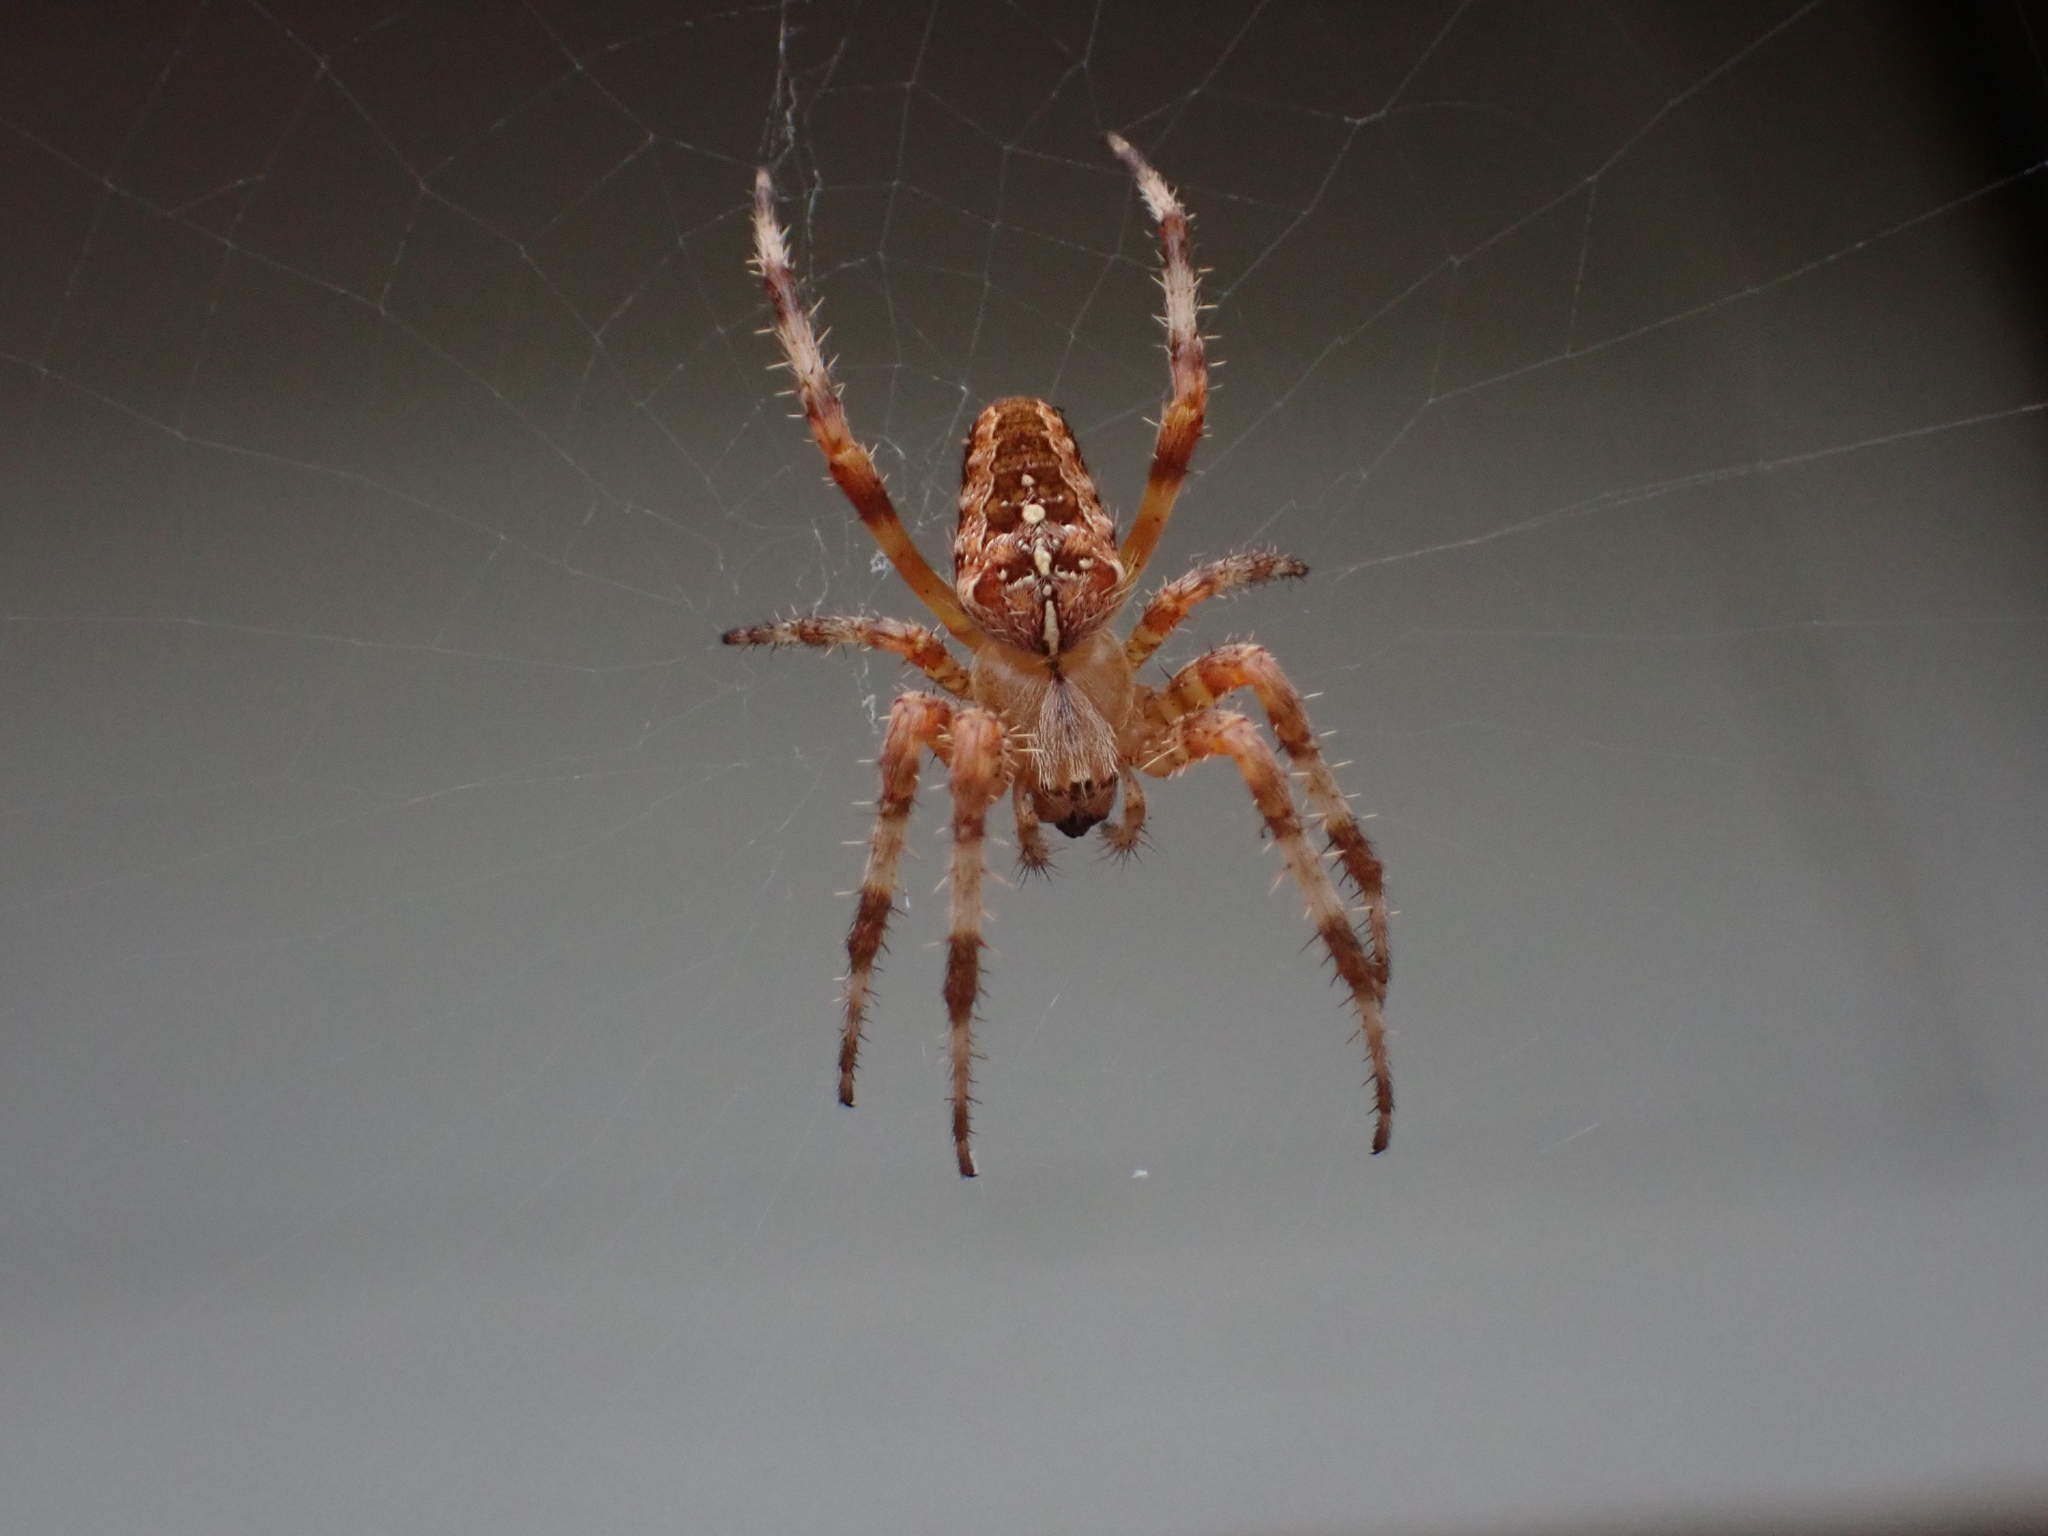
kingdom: Animalia
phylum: Arthropoda
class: Arachnida
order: Araneae
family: Araneidae
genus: Araneus
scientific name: Araneus diadematus
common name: Cross orbweaver
